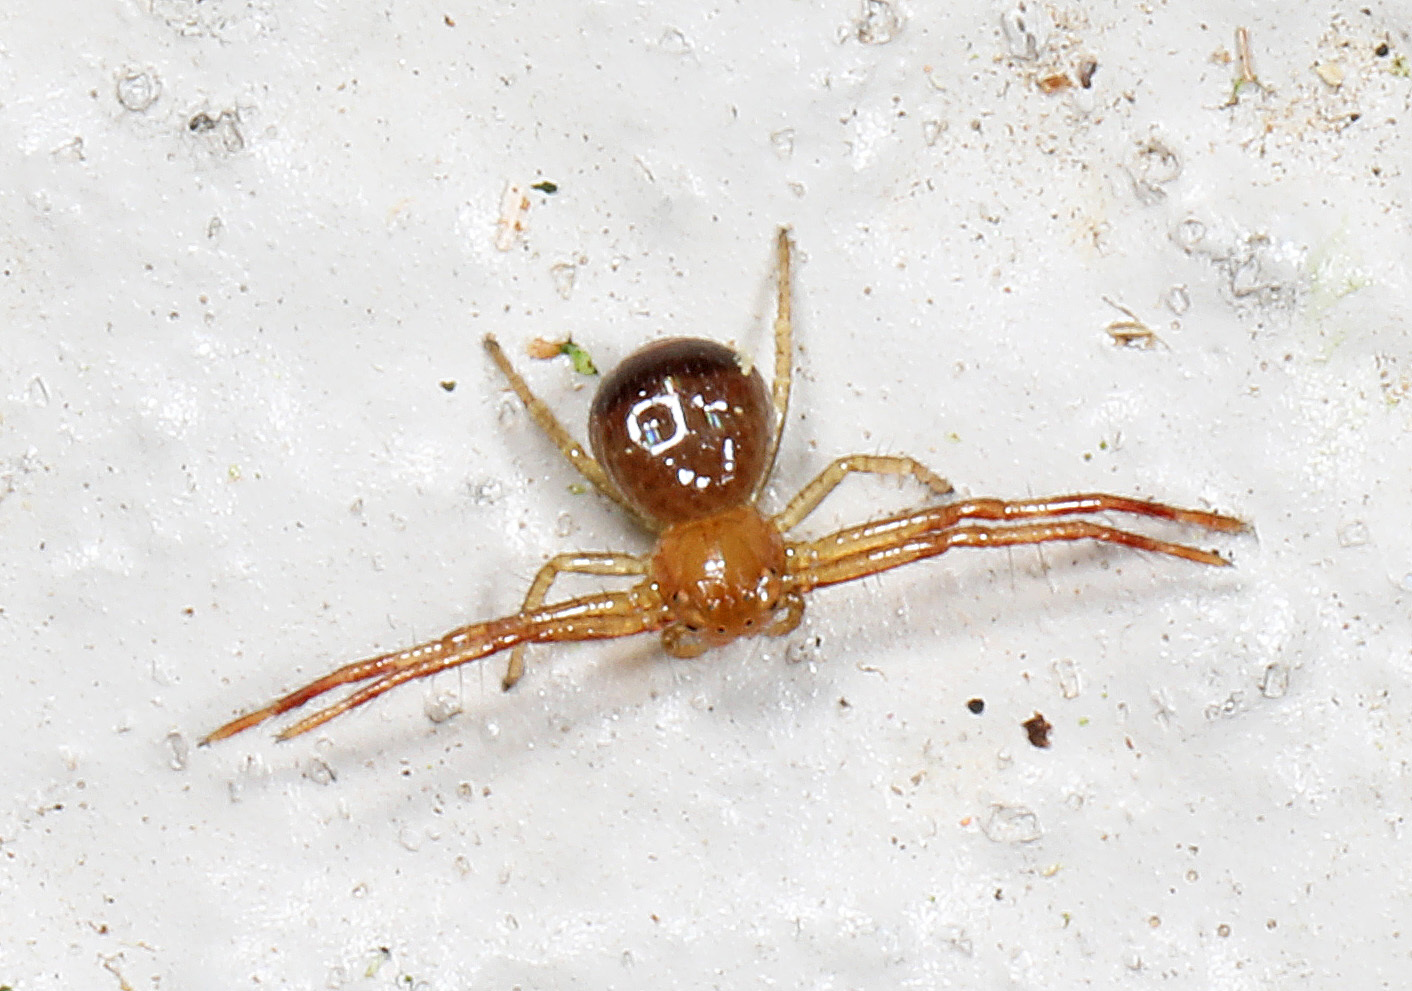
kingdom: Animalia
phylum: Arthropoda
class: Arachnida
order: Araneae
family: Thomisidae
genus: Synema
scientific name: Synema parvulum
